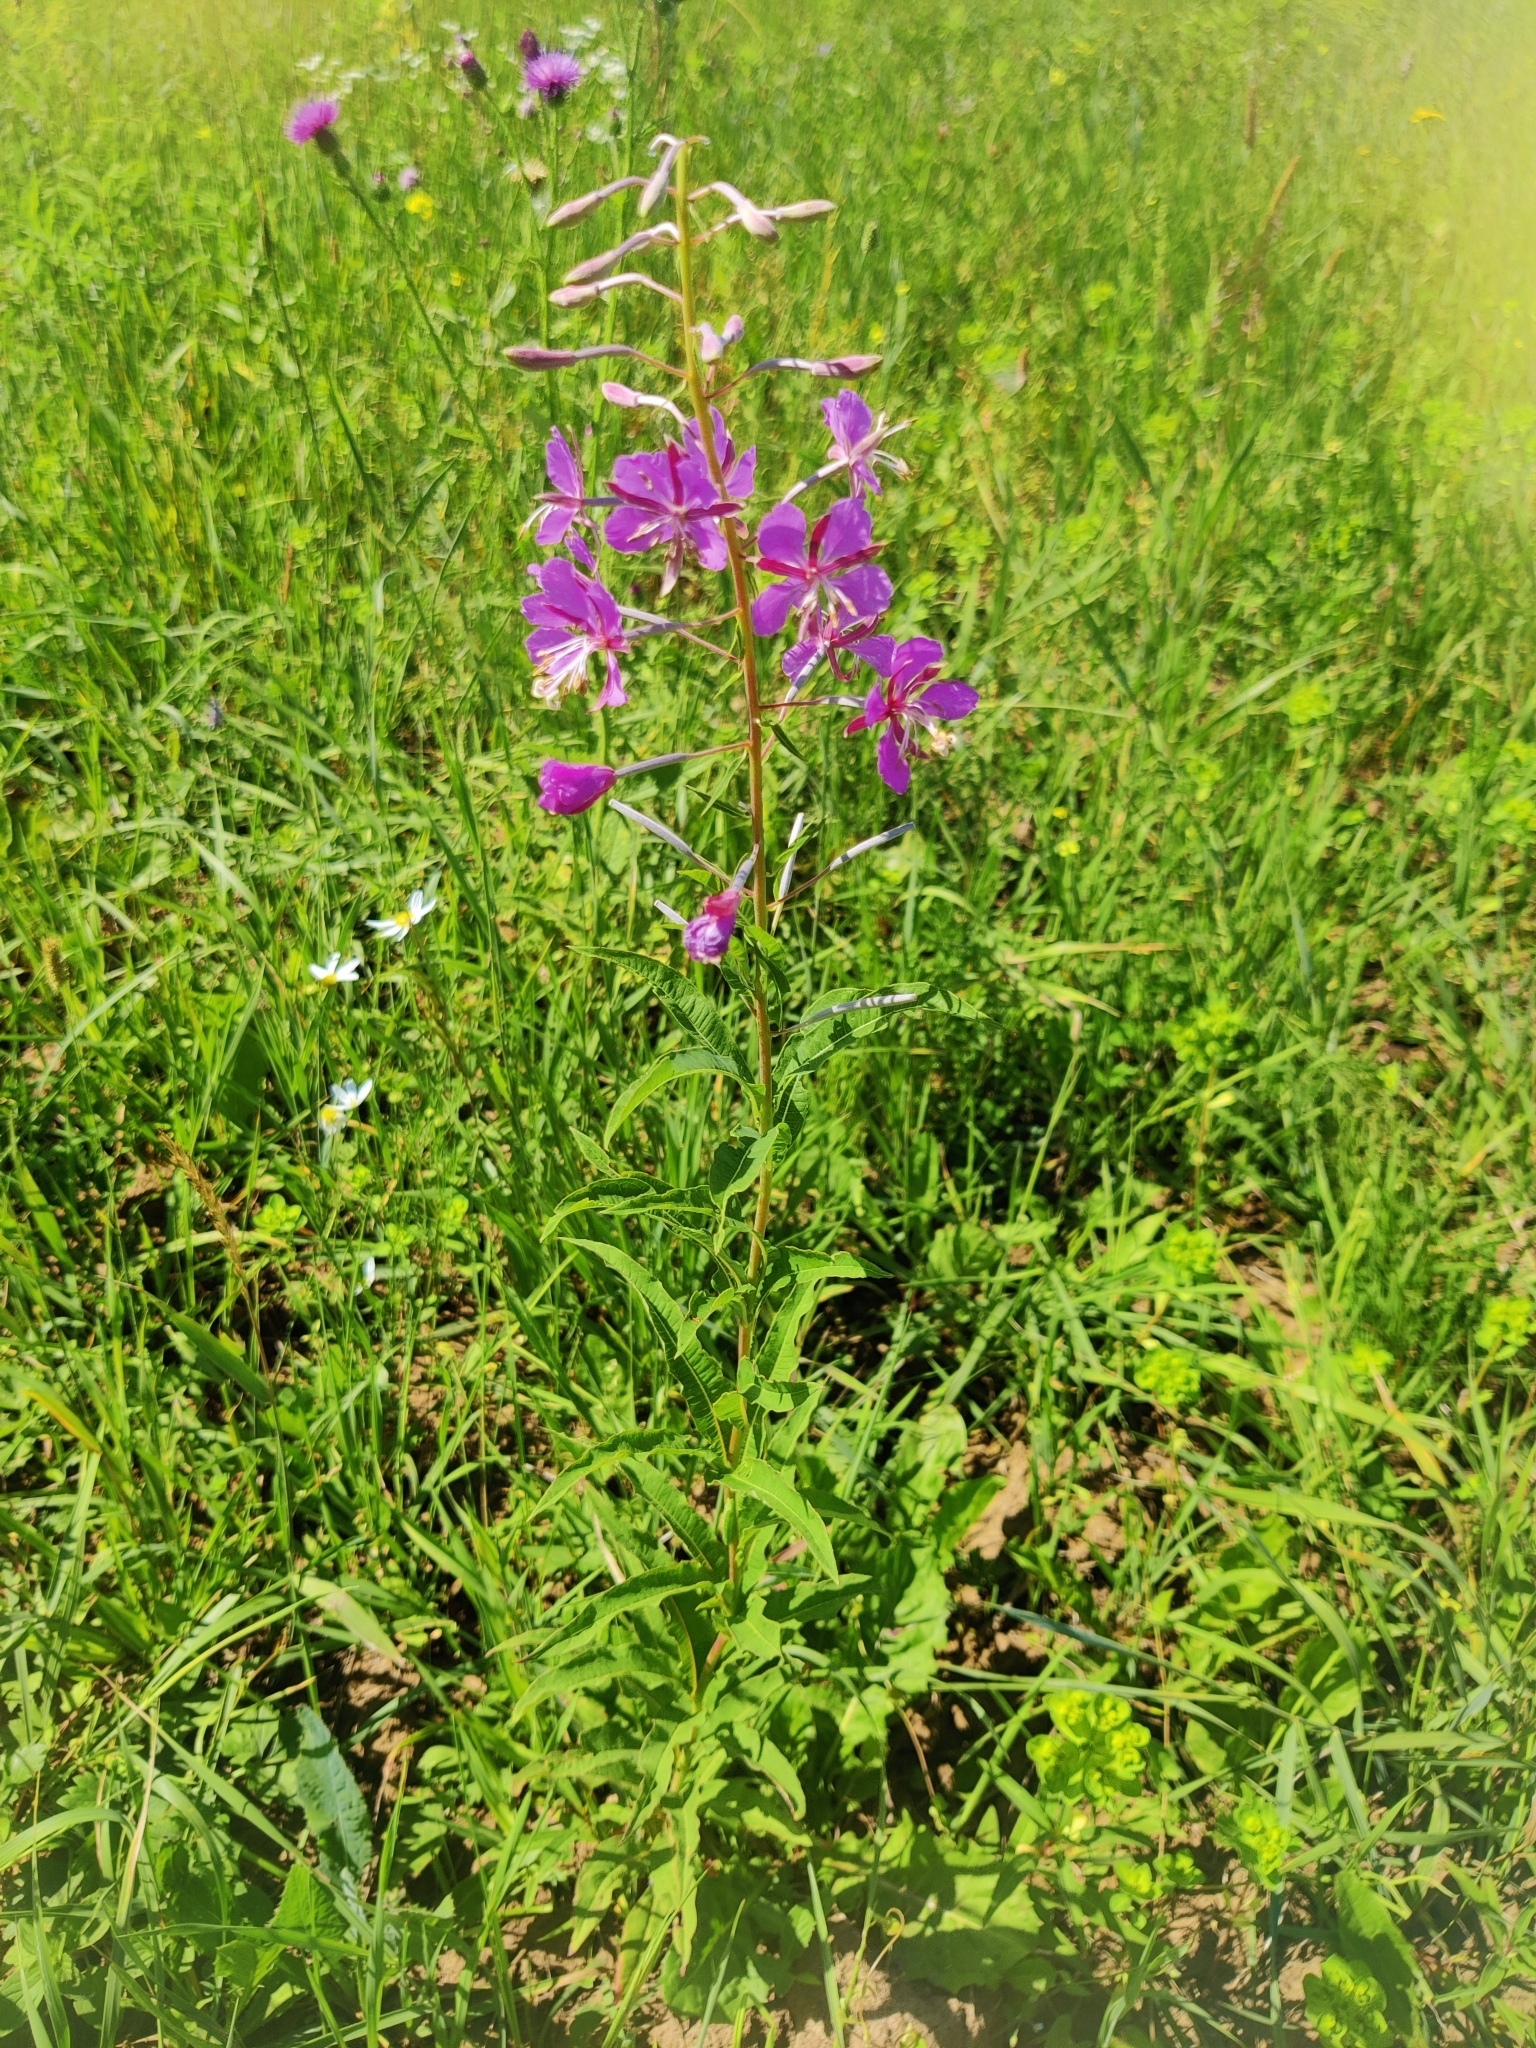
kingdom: Plantae
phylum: Tracheophyta
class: Magnoliopsida
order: Myrtales
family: Onagraceae
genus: Chamaenerion
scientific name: Chamaenerion angustifolium
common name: Fireweed
